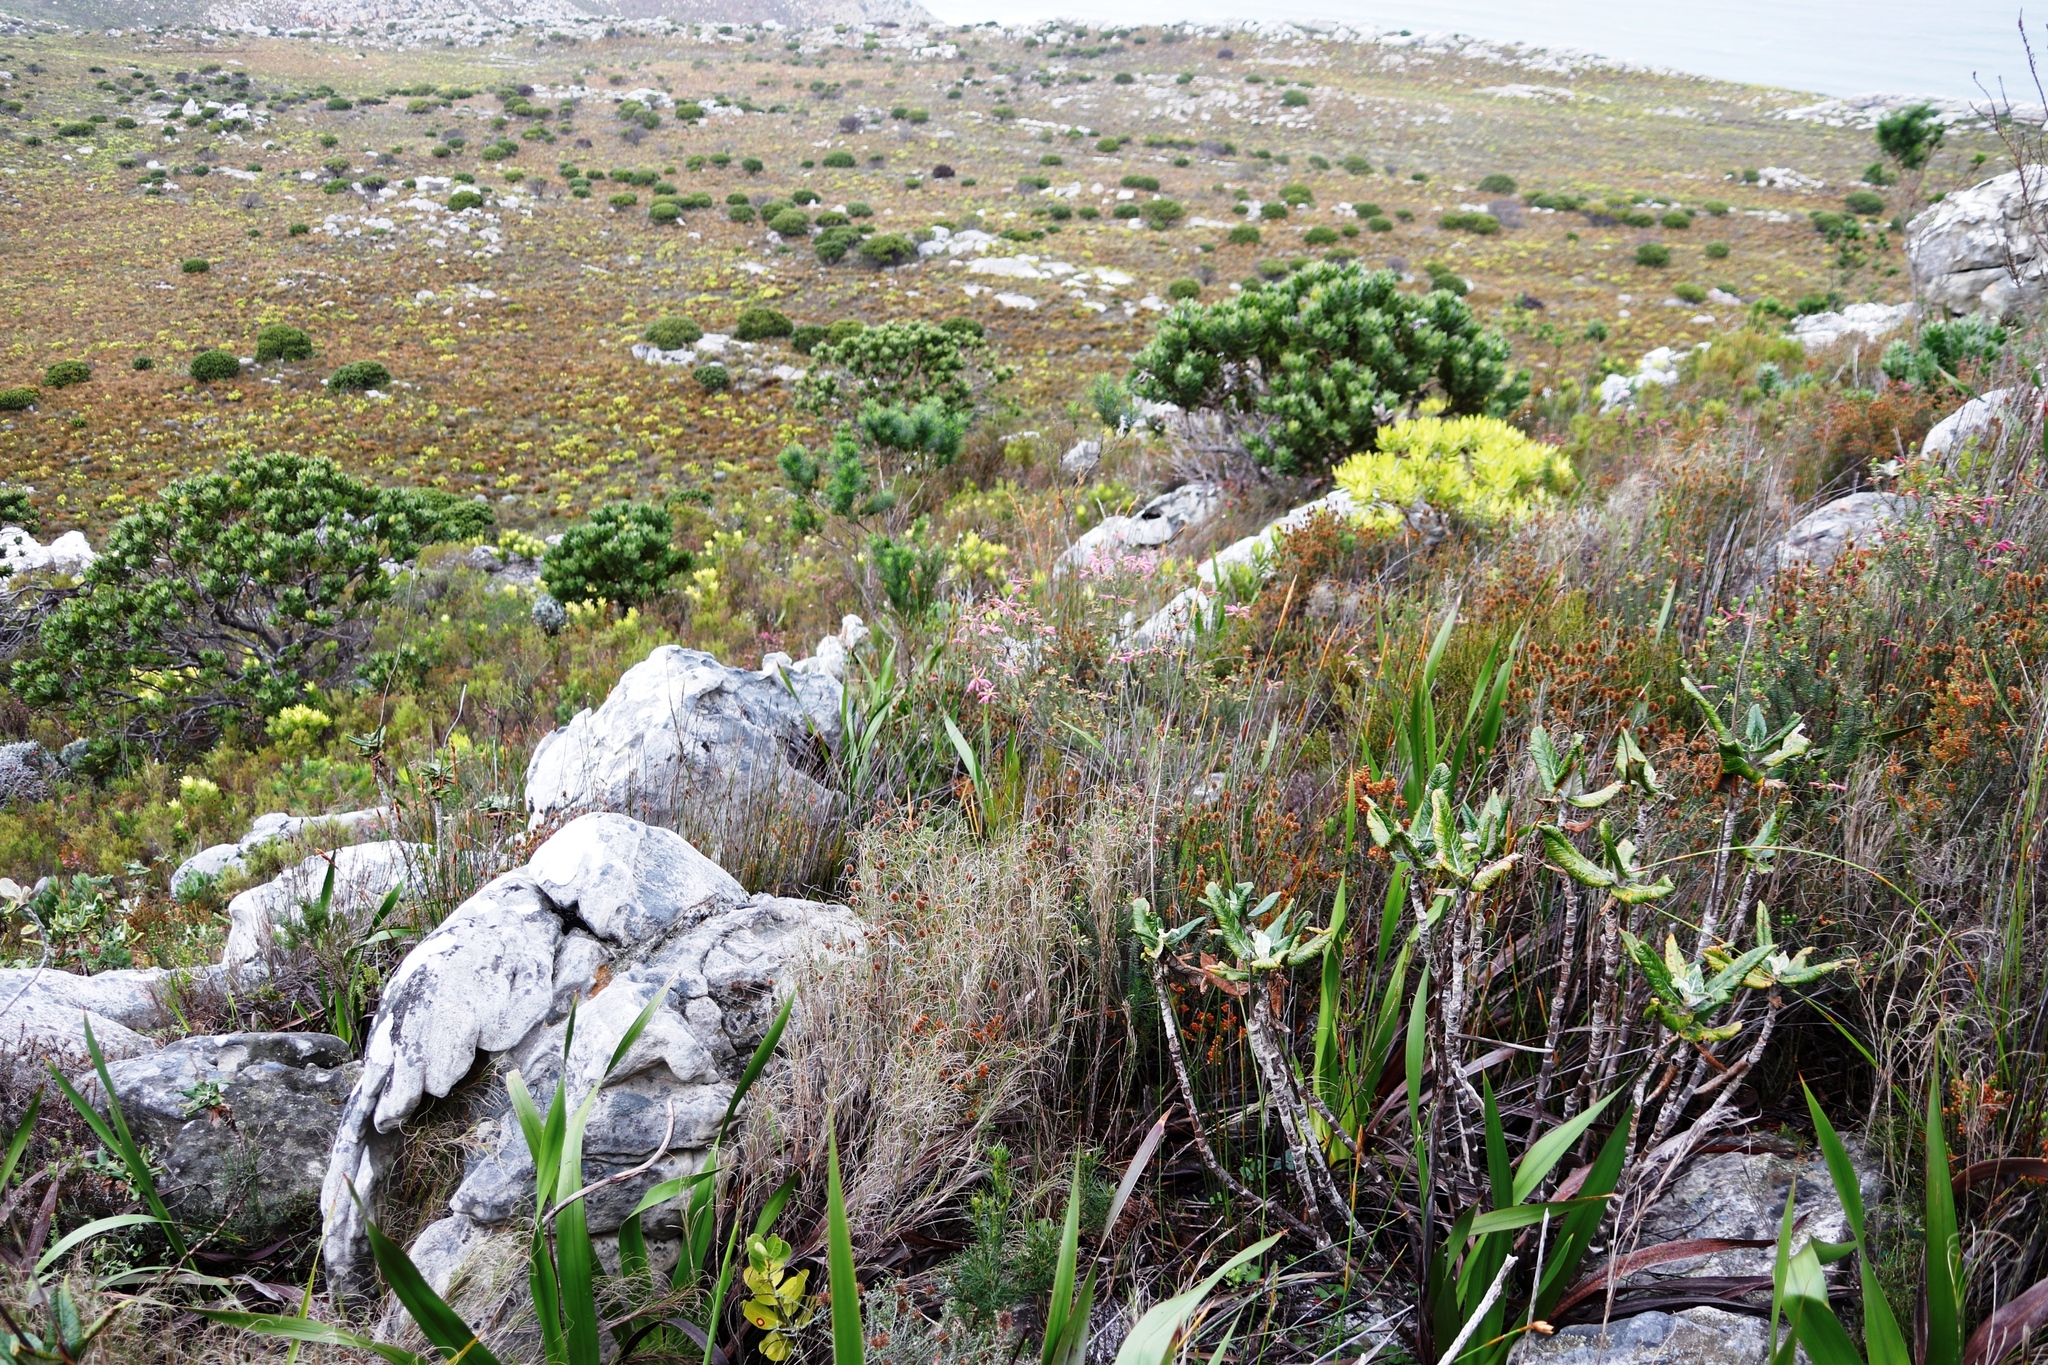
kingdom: Plantae
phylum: Tracheophyta
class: Magnoliopsida
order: Proteales
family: Proteaceae
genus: Leucospermum
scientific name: Leucospermum conocarpodendron
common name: Tree pincushion
